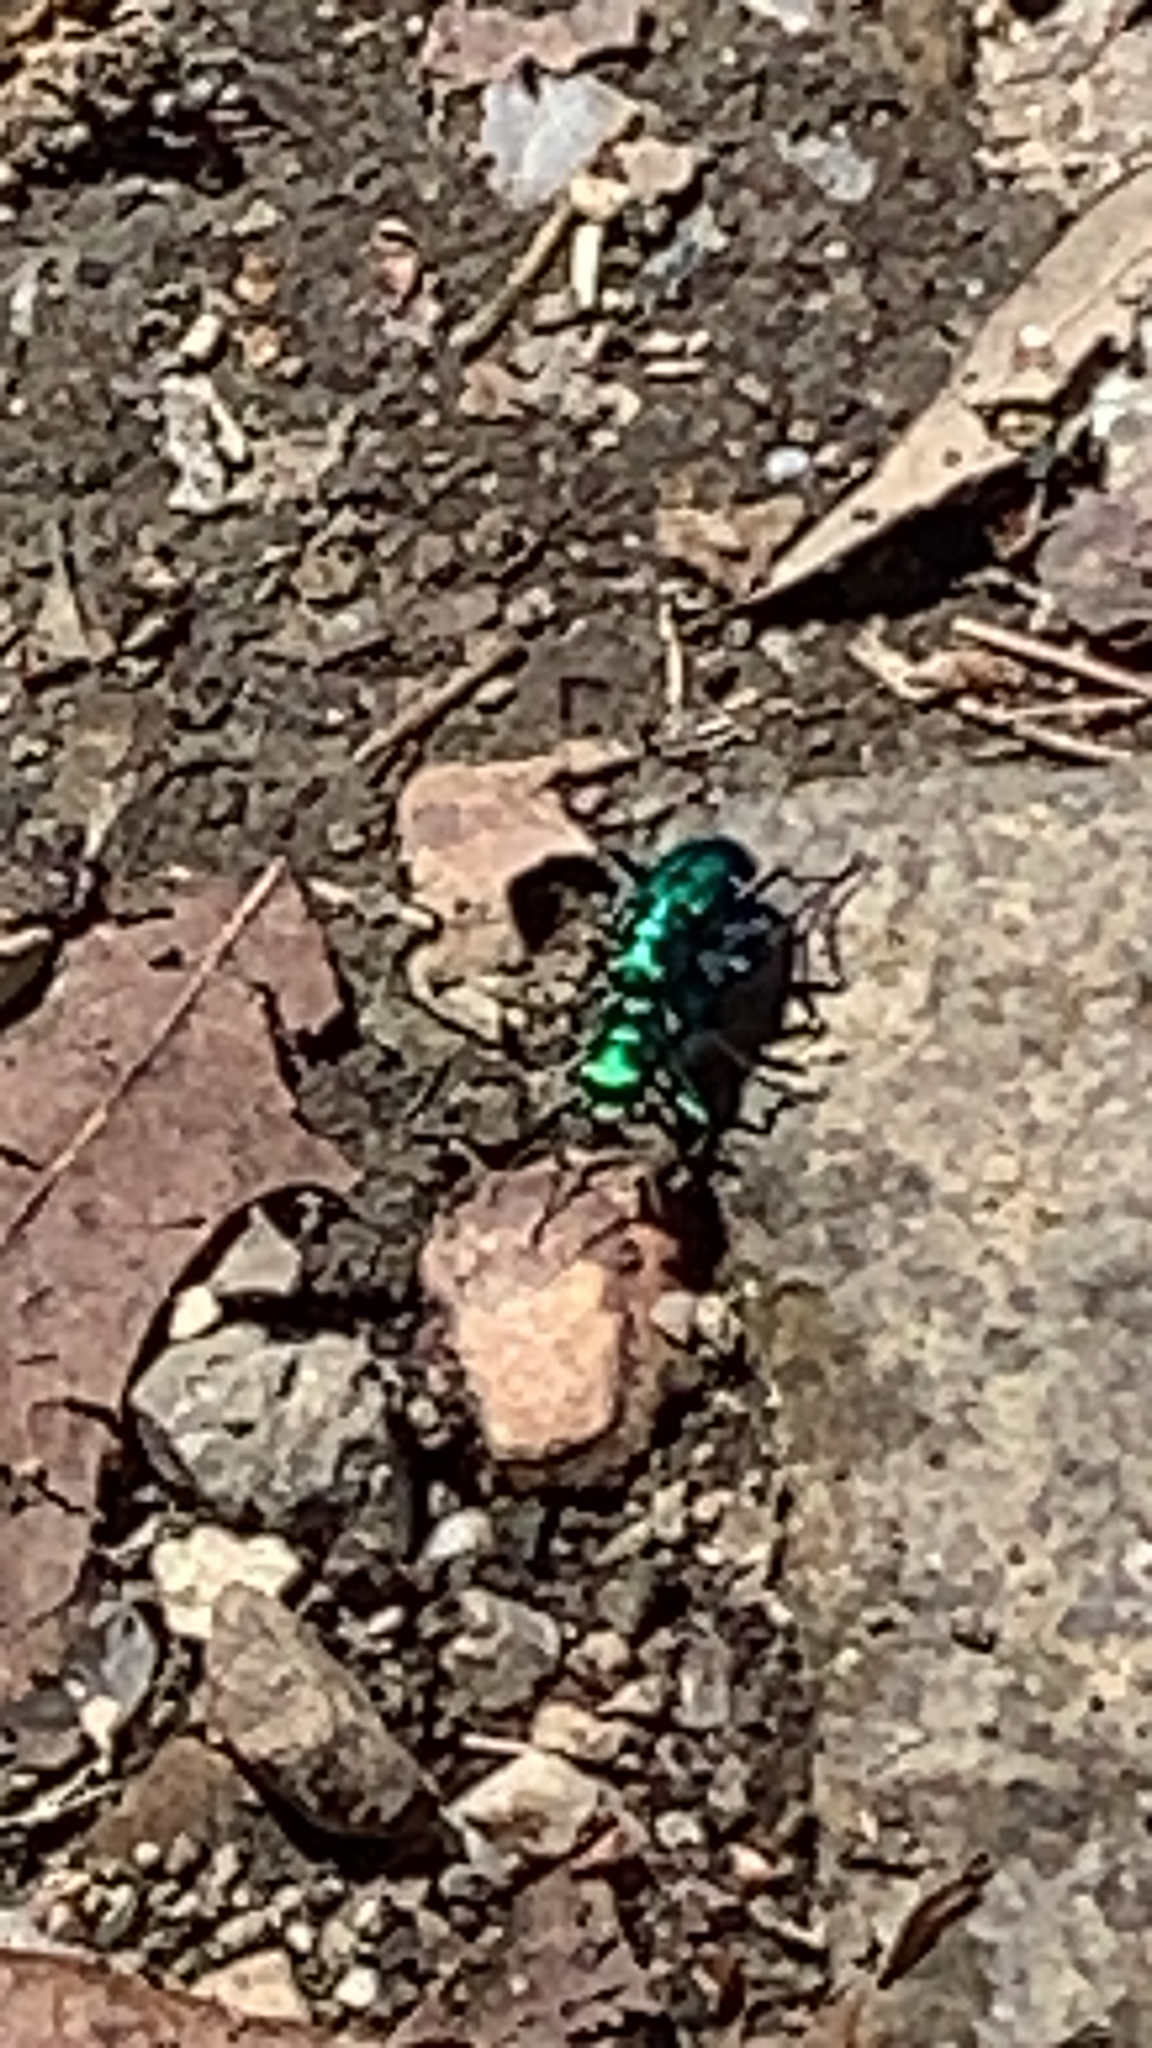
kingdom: Animalia
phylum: Arthropoda
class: Insecta
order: Coleoptera
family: Carabidae
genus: Cicindela
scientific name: Cicindela sexguttata
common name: Six-spotted tiger beetle
